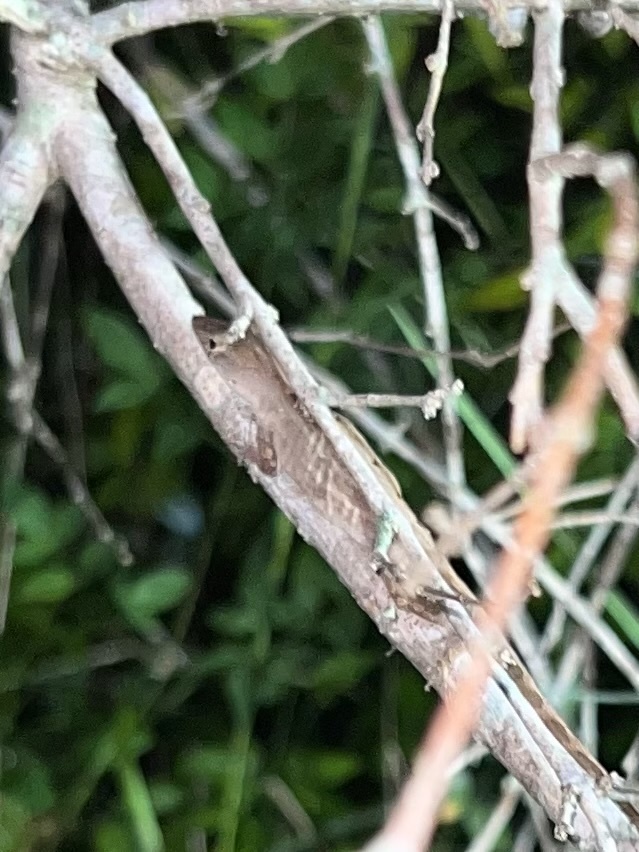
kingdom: Animalia
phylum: Chordata
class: Squamata
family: Dactyloidae
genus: Anolis
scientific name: Anolis sagrei
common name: Brown anole
